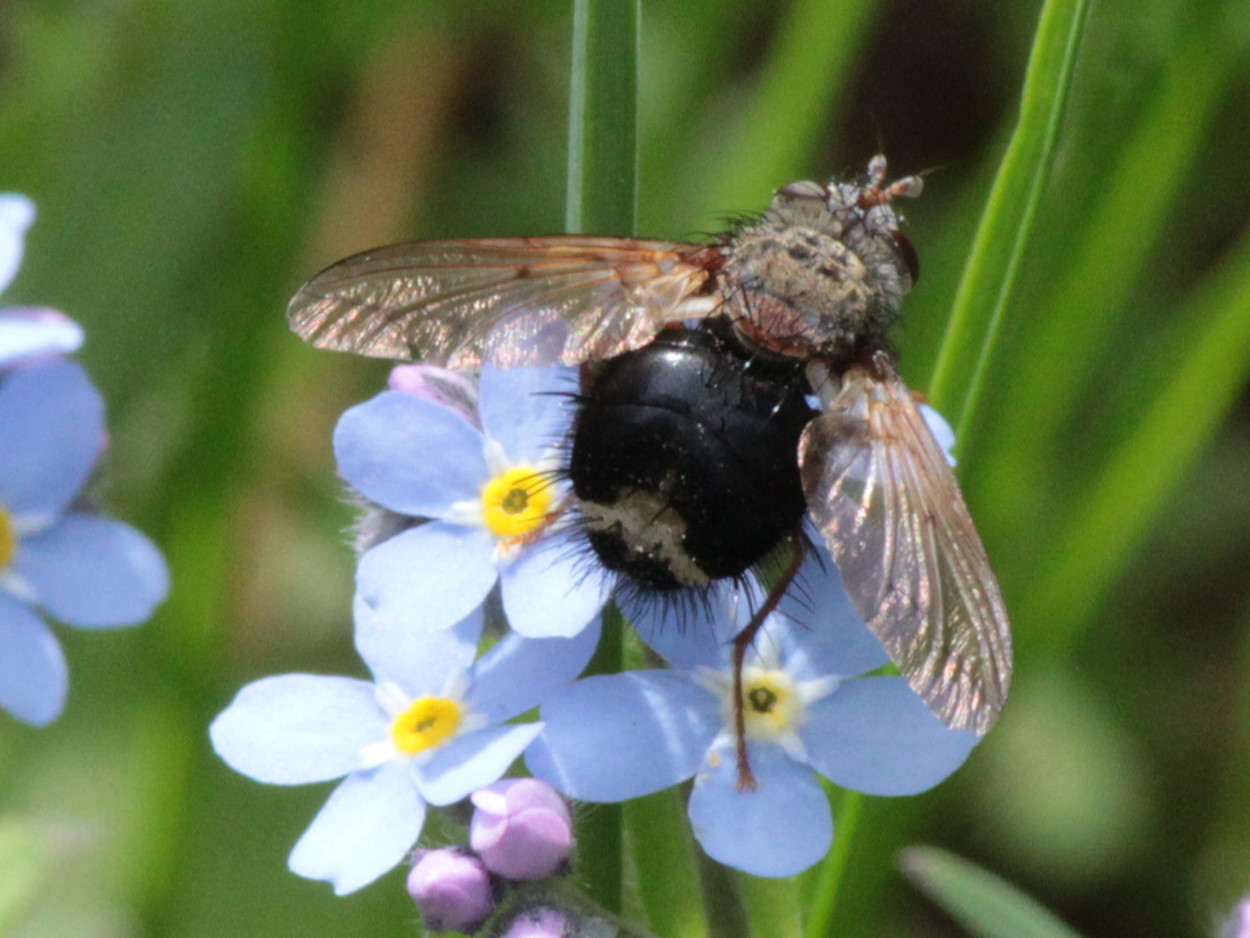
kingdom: Animalia
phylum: Arthropoda
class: Insecta
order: Diptera
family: Tachinidae
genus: Epalpus
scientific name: Epalpus signifer
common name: Early tachinid fly
